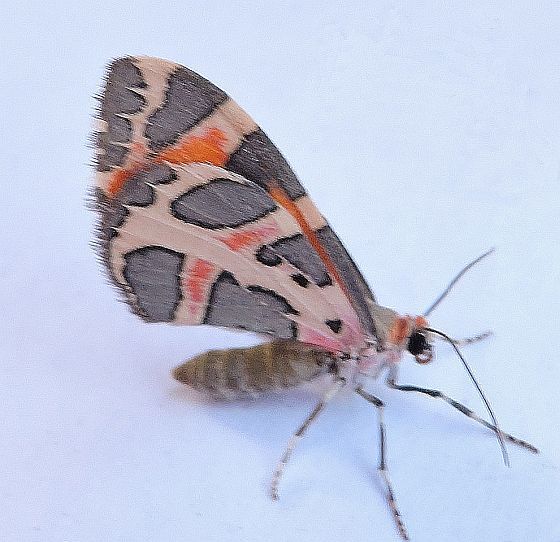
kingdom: Animalia
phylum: Arthropoda
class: Insecta
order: Lepidoptera
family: Geometridae
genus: Stamnodes
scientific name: Stamnodes deceptiva
